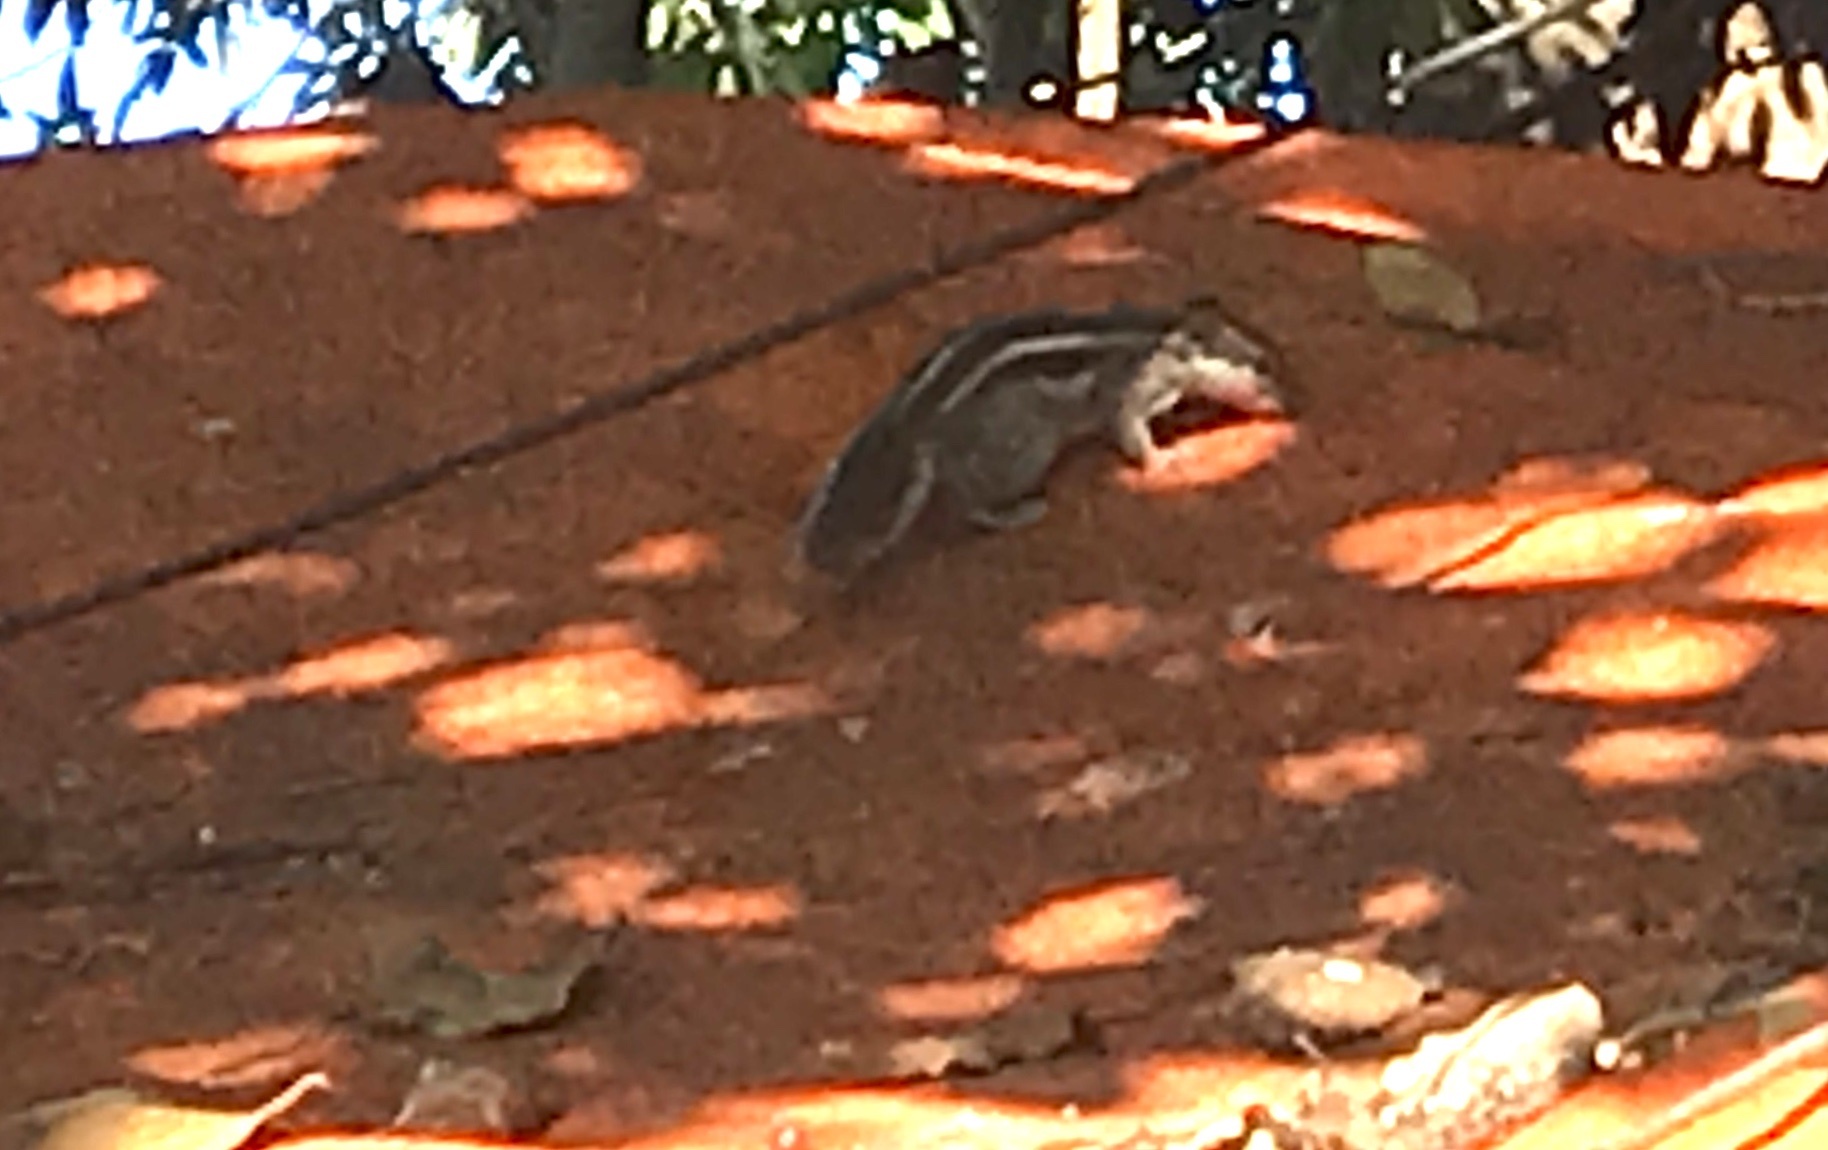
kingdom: Animalia
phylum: Chordata
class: Mammalia
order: Rodentia
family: Sciuridae
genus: Funambulus
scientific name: Funambulus pennantii
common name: Northern palm squirrel
